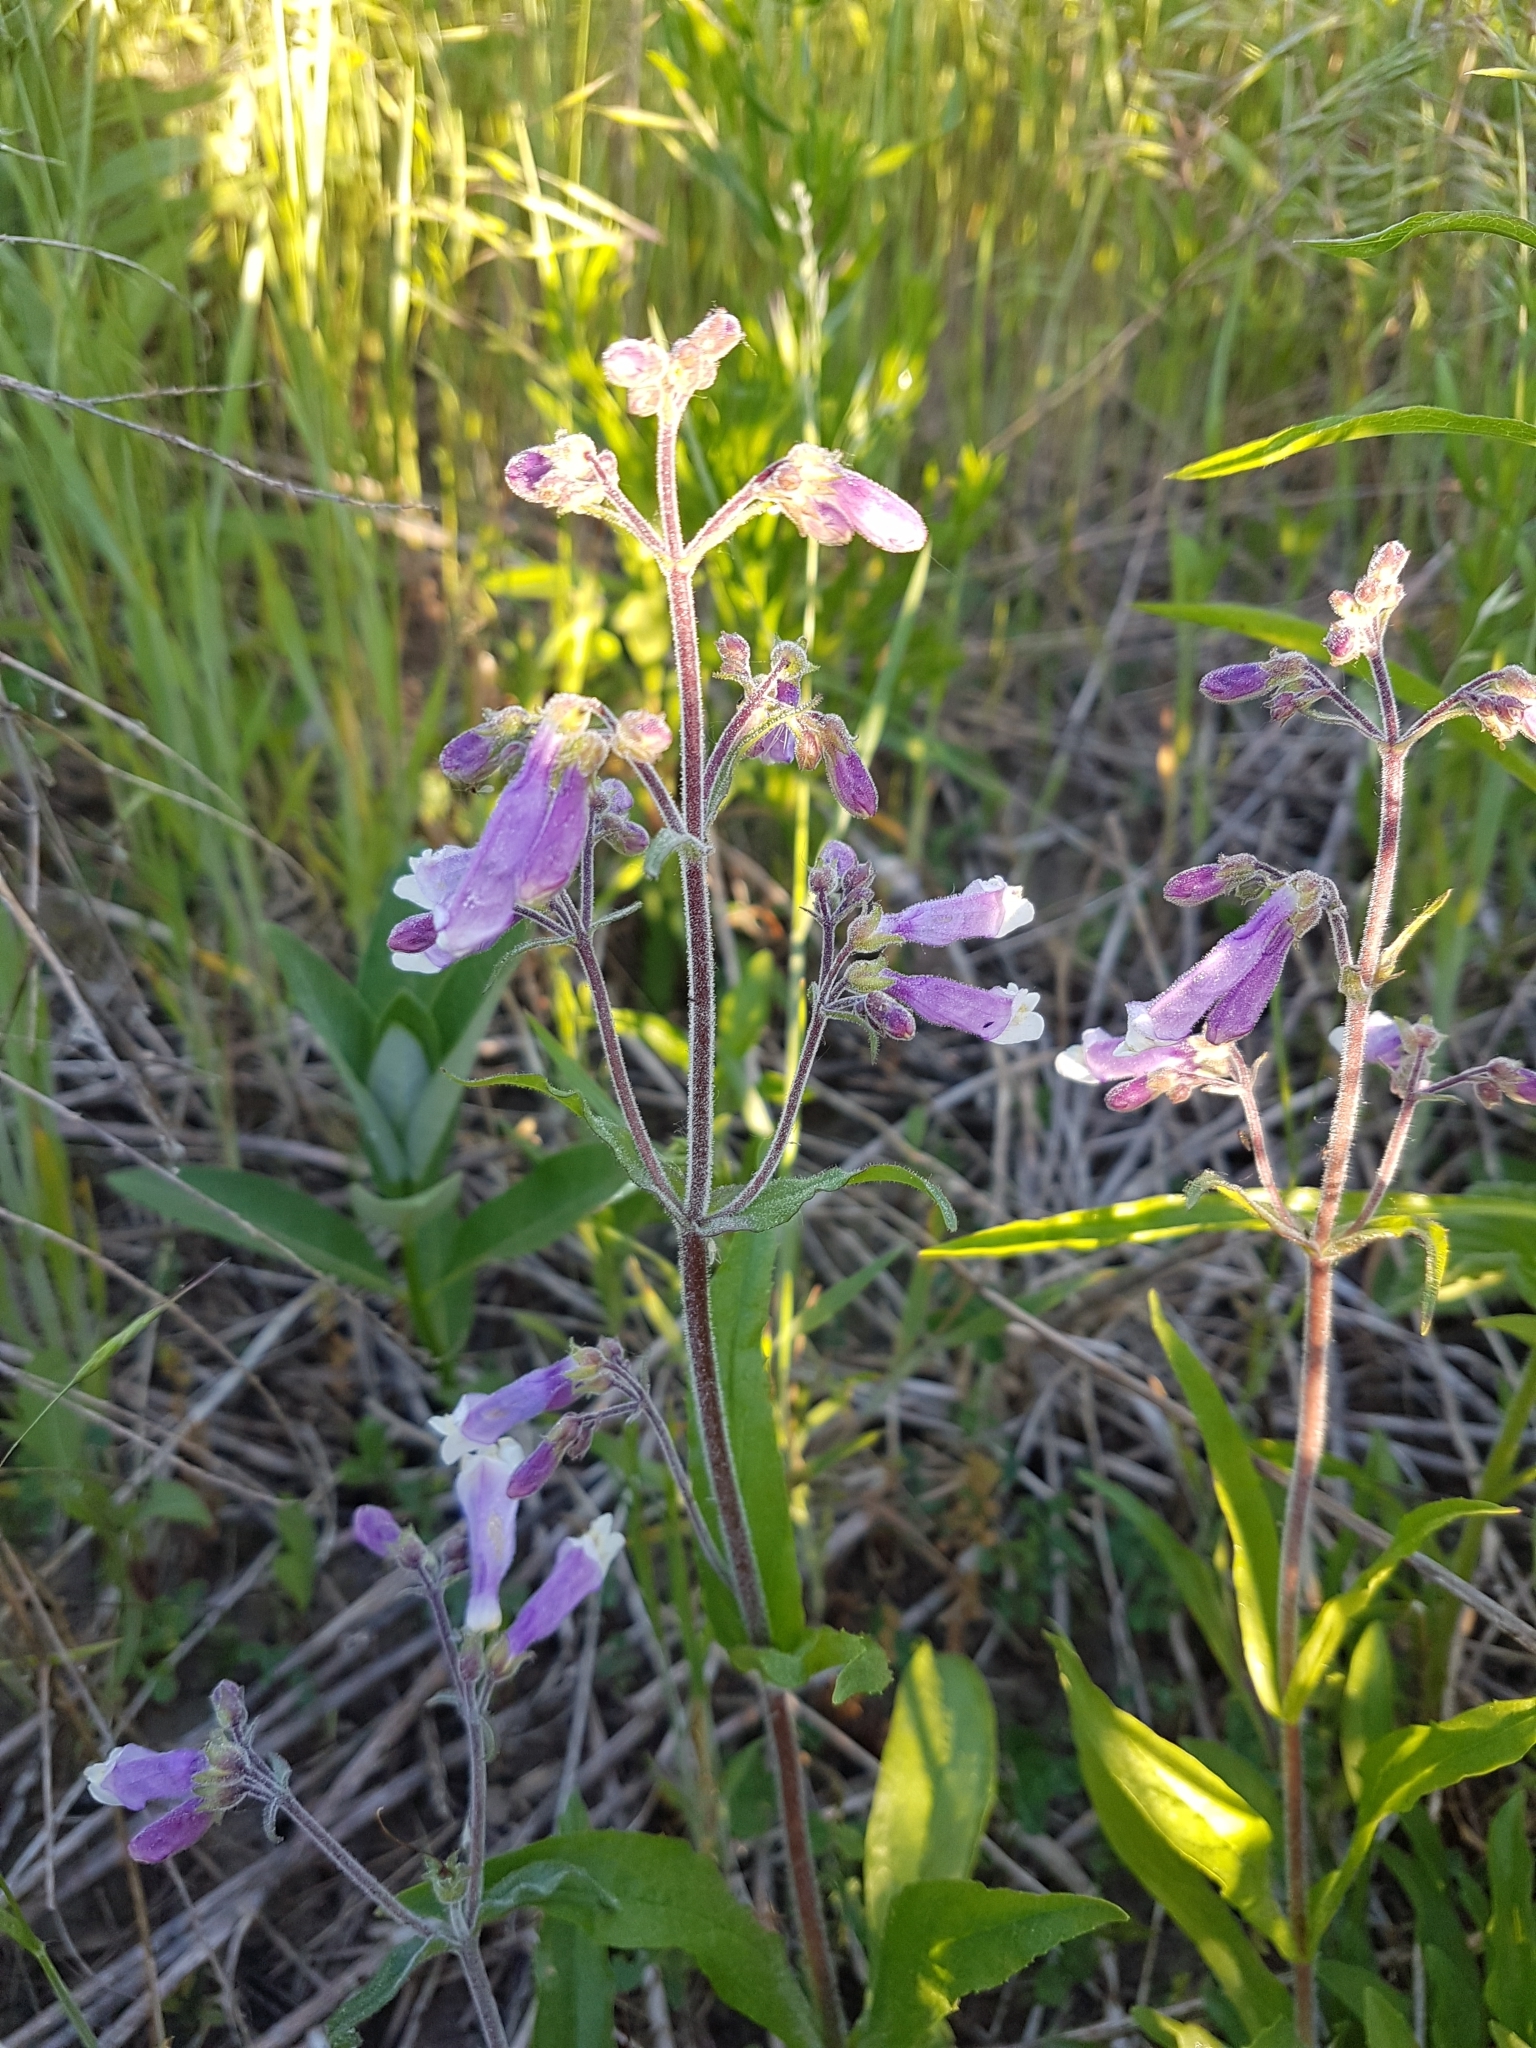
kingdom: Plantae
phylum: Tracheophyta
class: Magnoliopsida
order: Lamiales
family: Plantaginaceae
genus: Penstemon
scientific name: Penstemon hirsutus
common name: Hairy beardtongue
